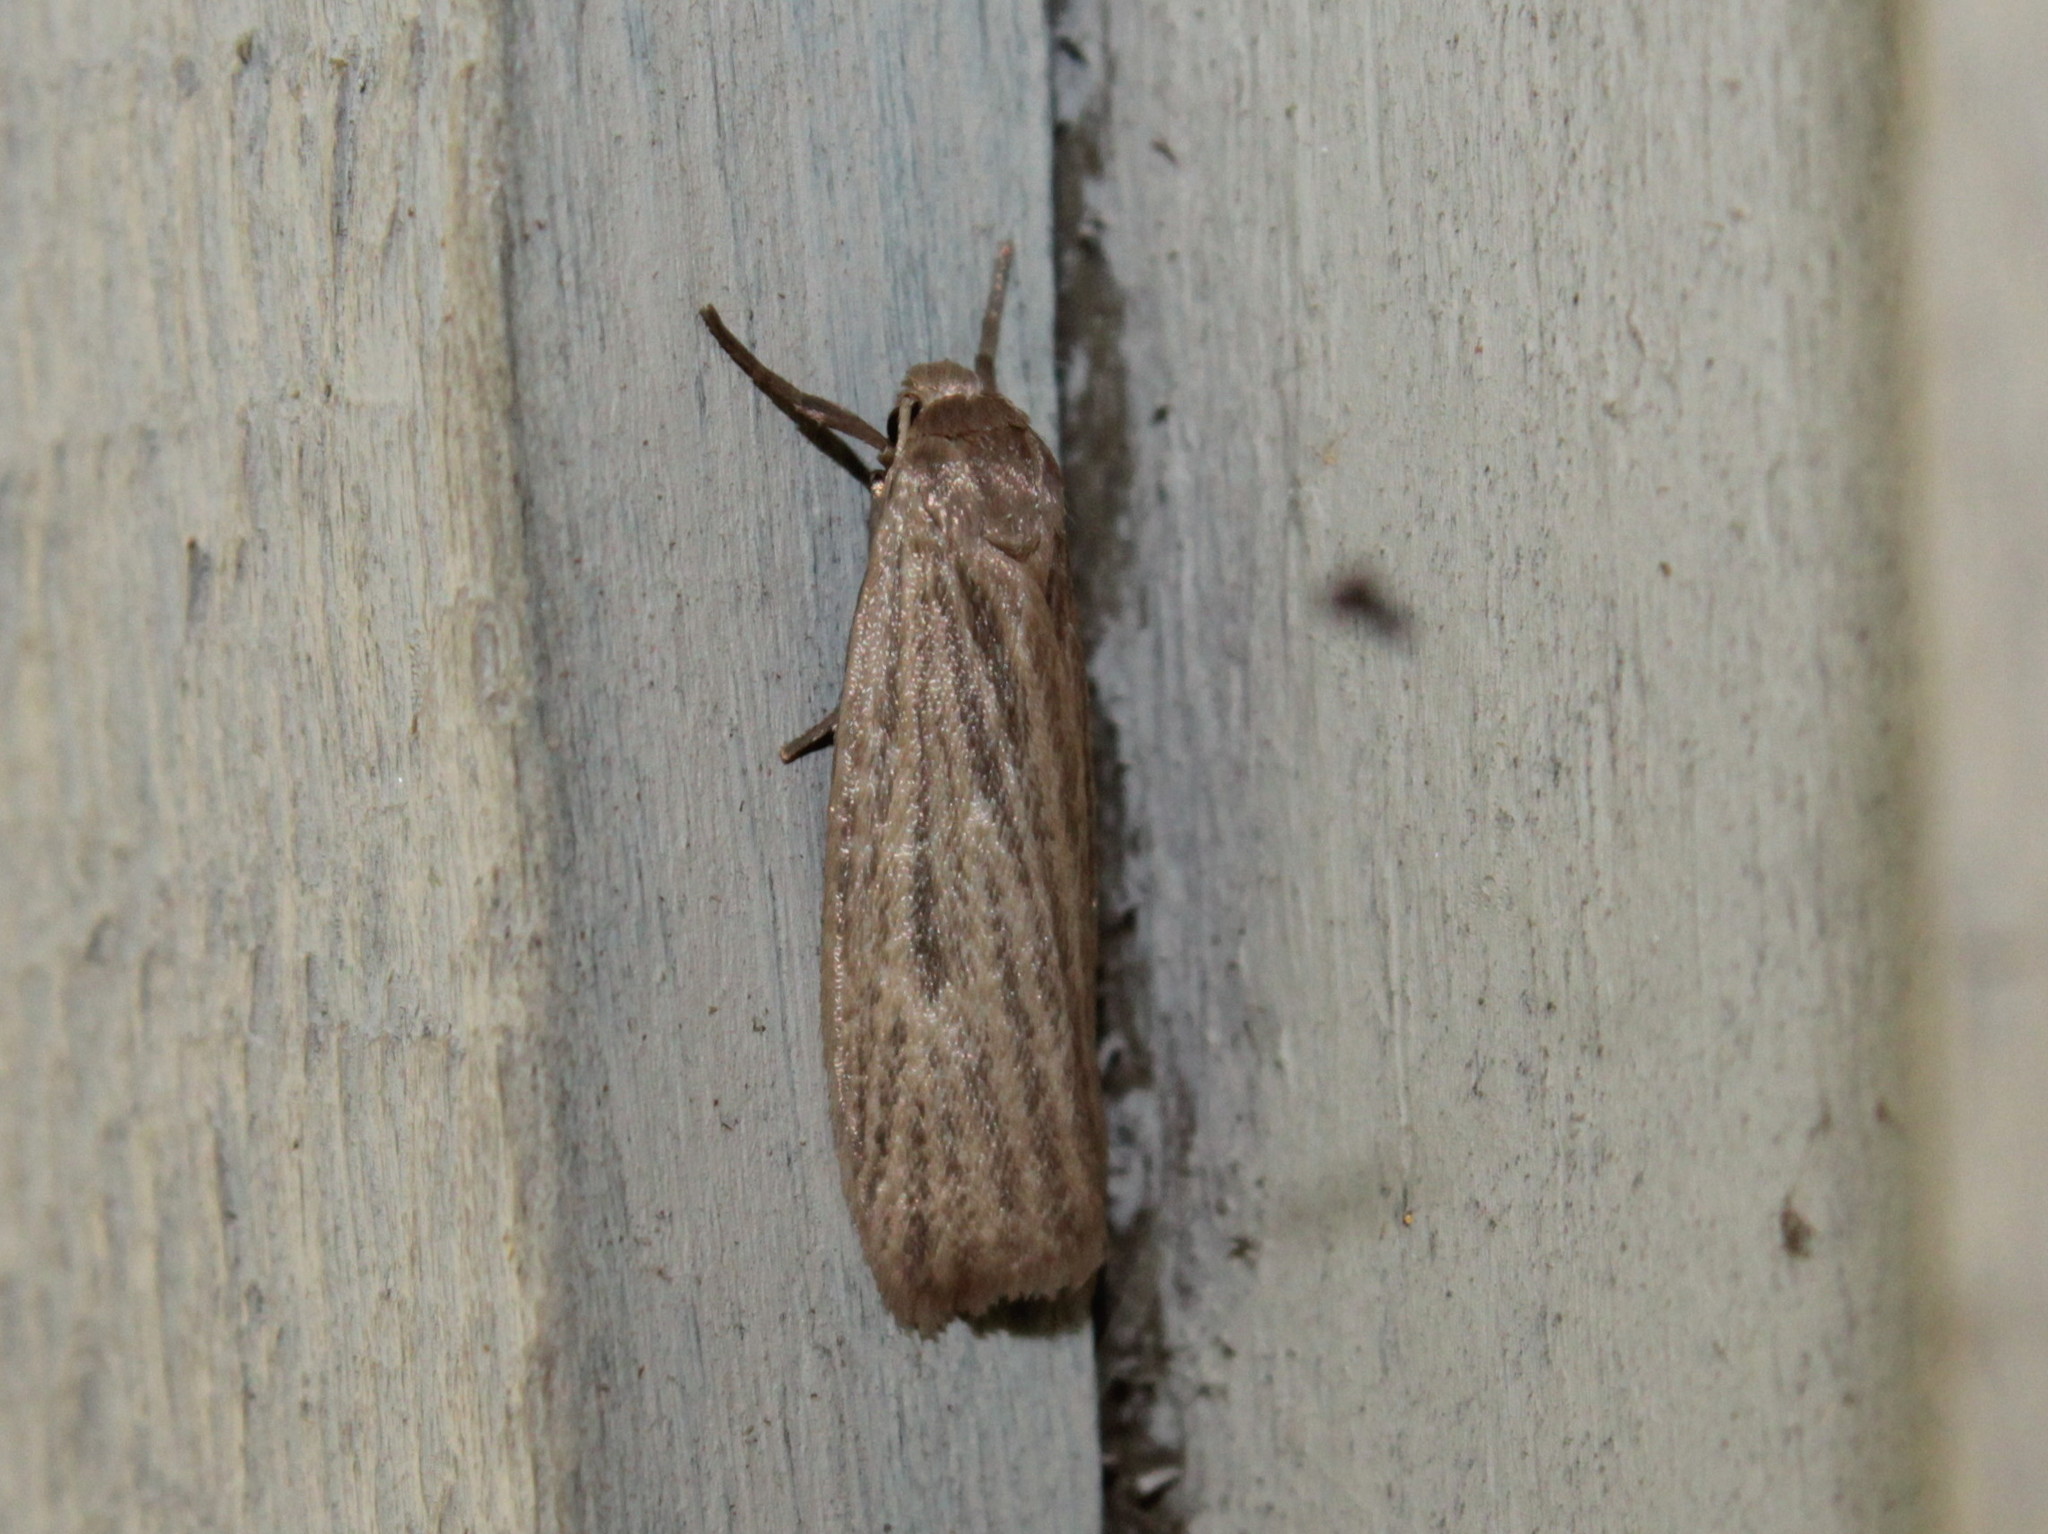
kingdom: Animalia
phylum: Arthropoda
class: Insecta
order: Lepidoptera
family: Erebidae
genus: Crambidia
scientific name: Crambidia pallida
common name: Pale lichen moth
